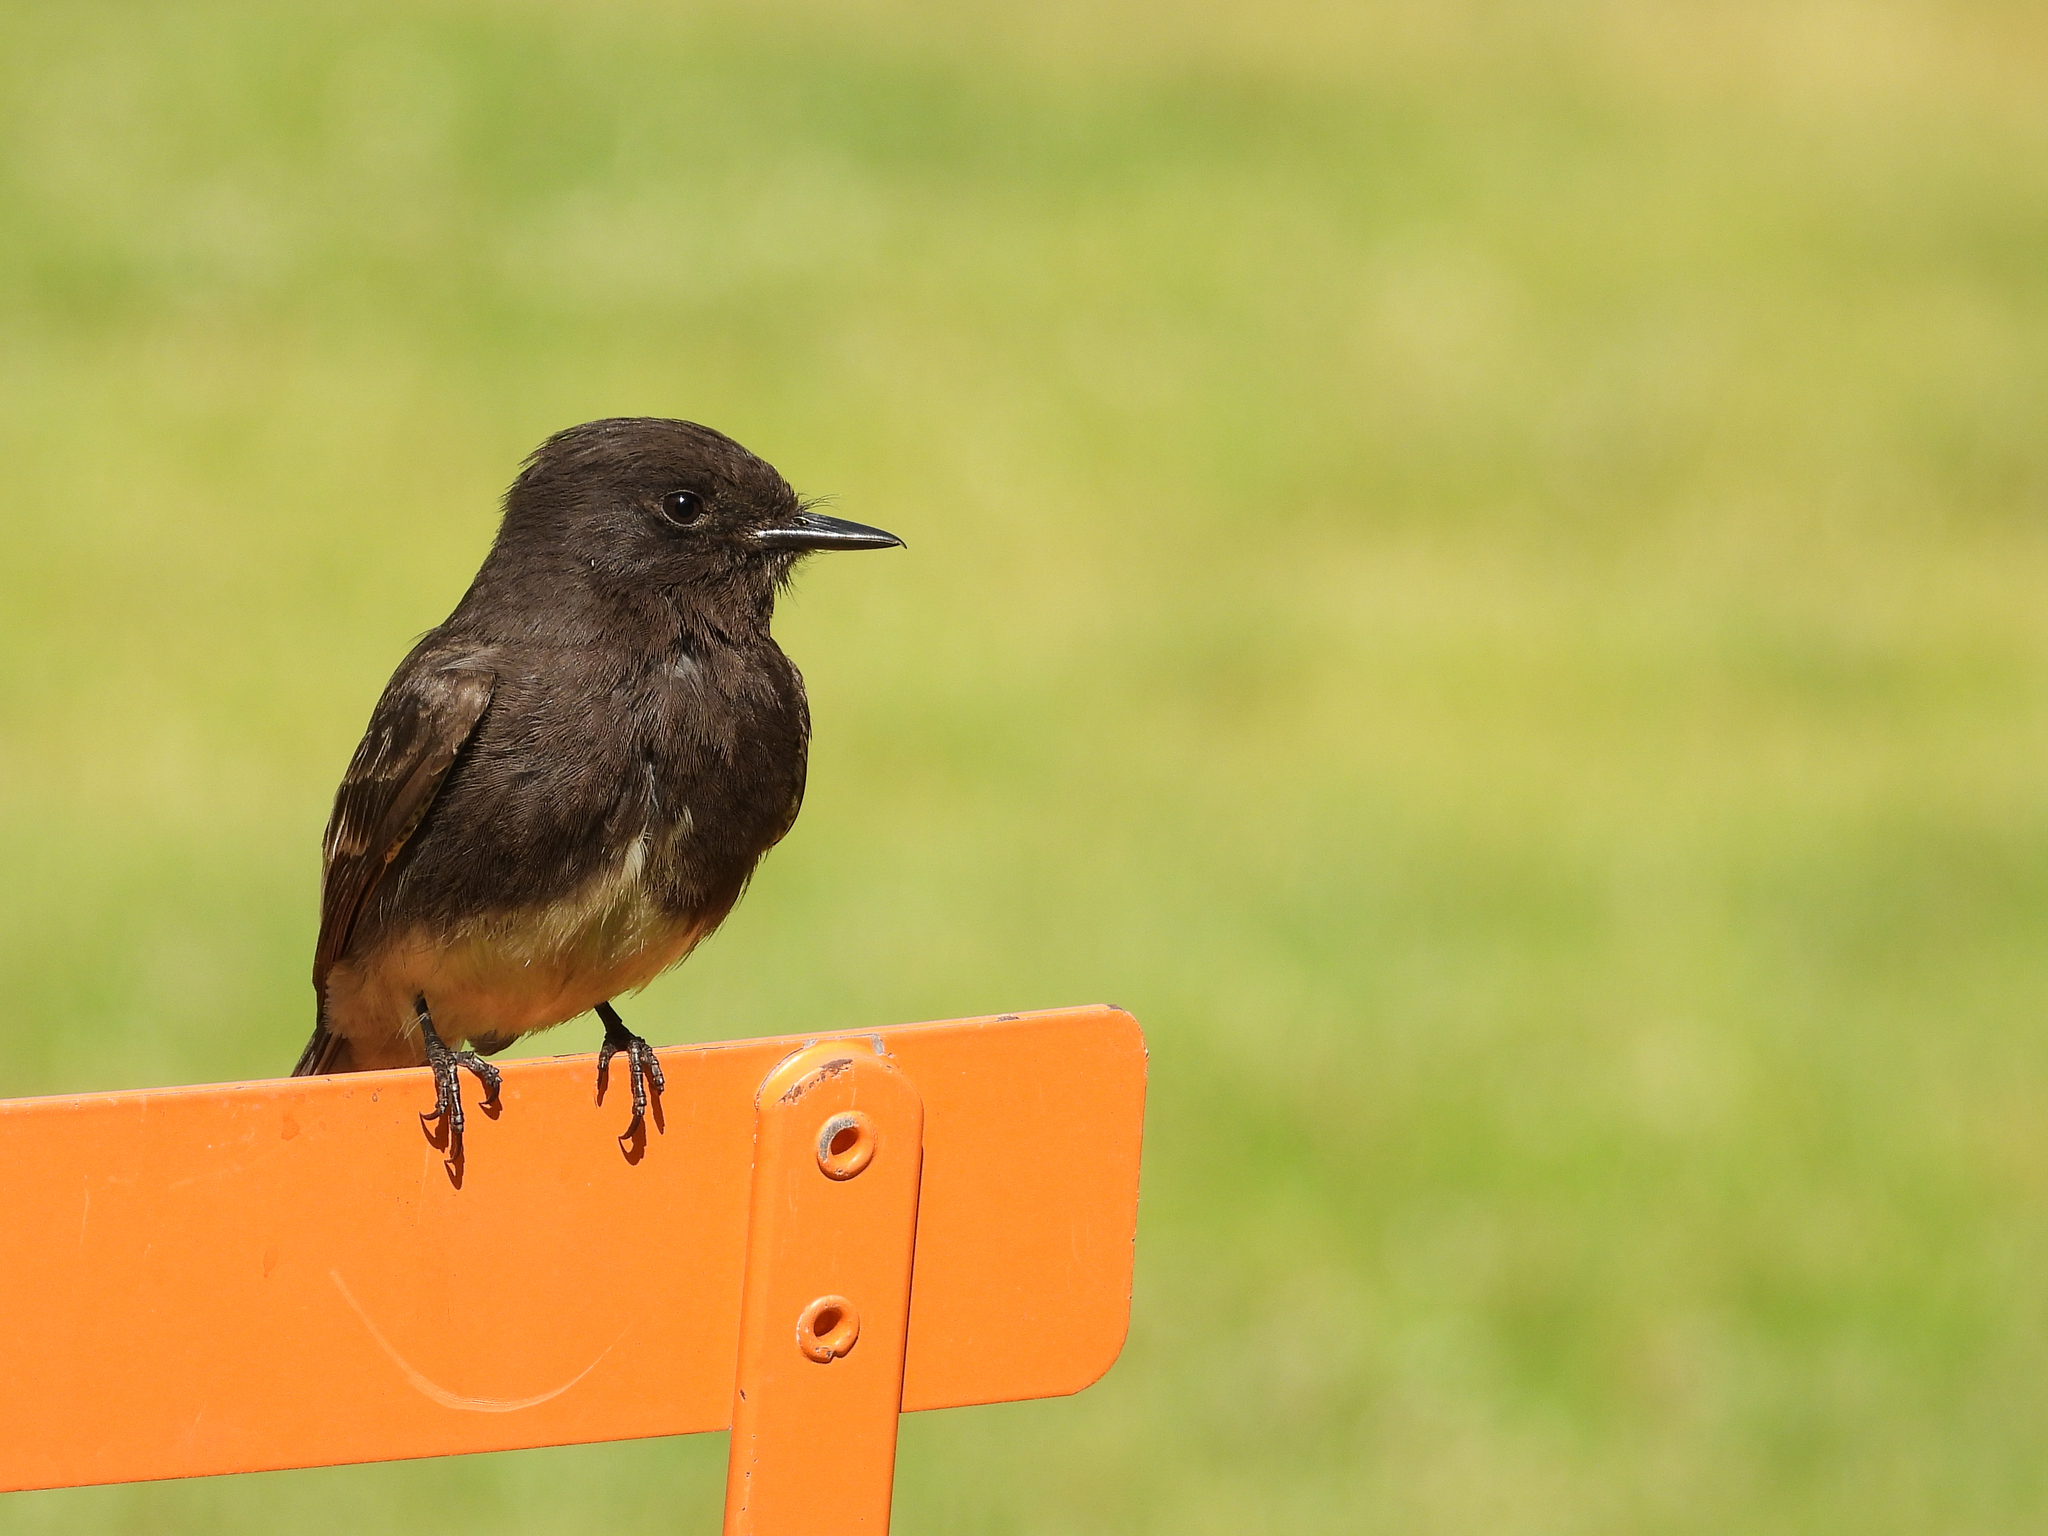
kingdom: Animalia
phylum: Chordata
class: Aves
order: Passeriformes
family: Tyrannidae
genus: Sayornis
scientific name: Sayornis nigricans
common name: Black phoebe
